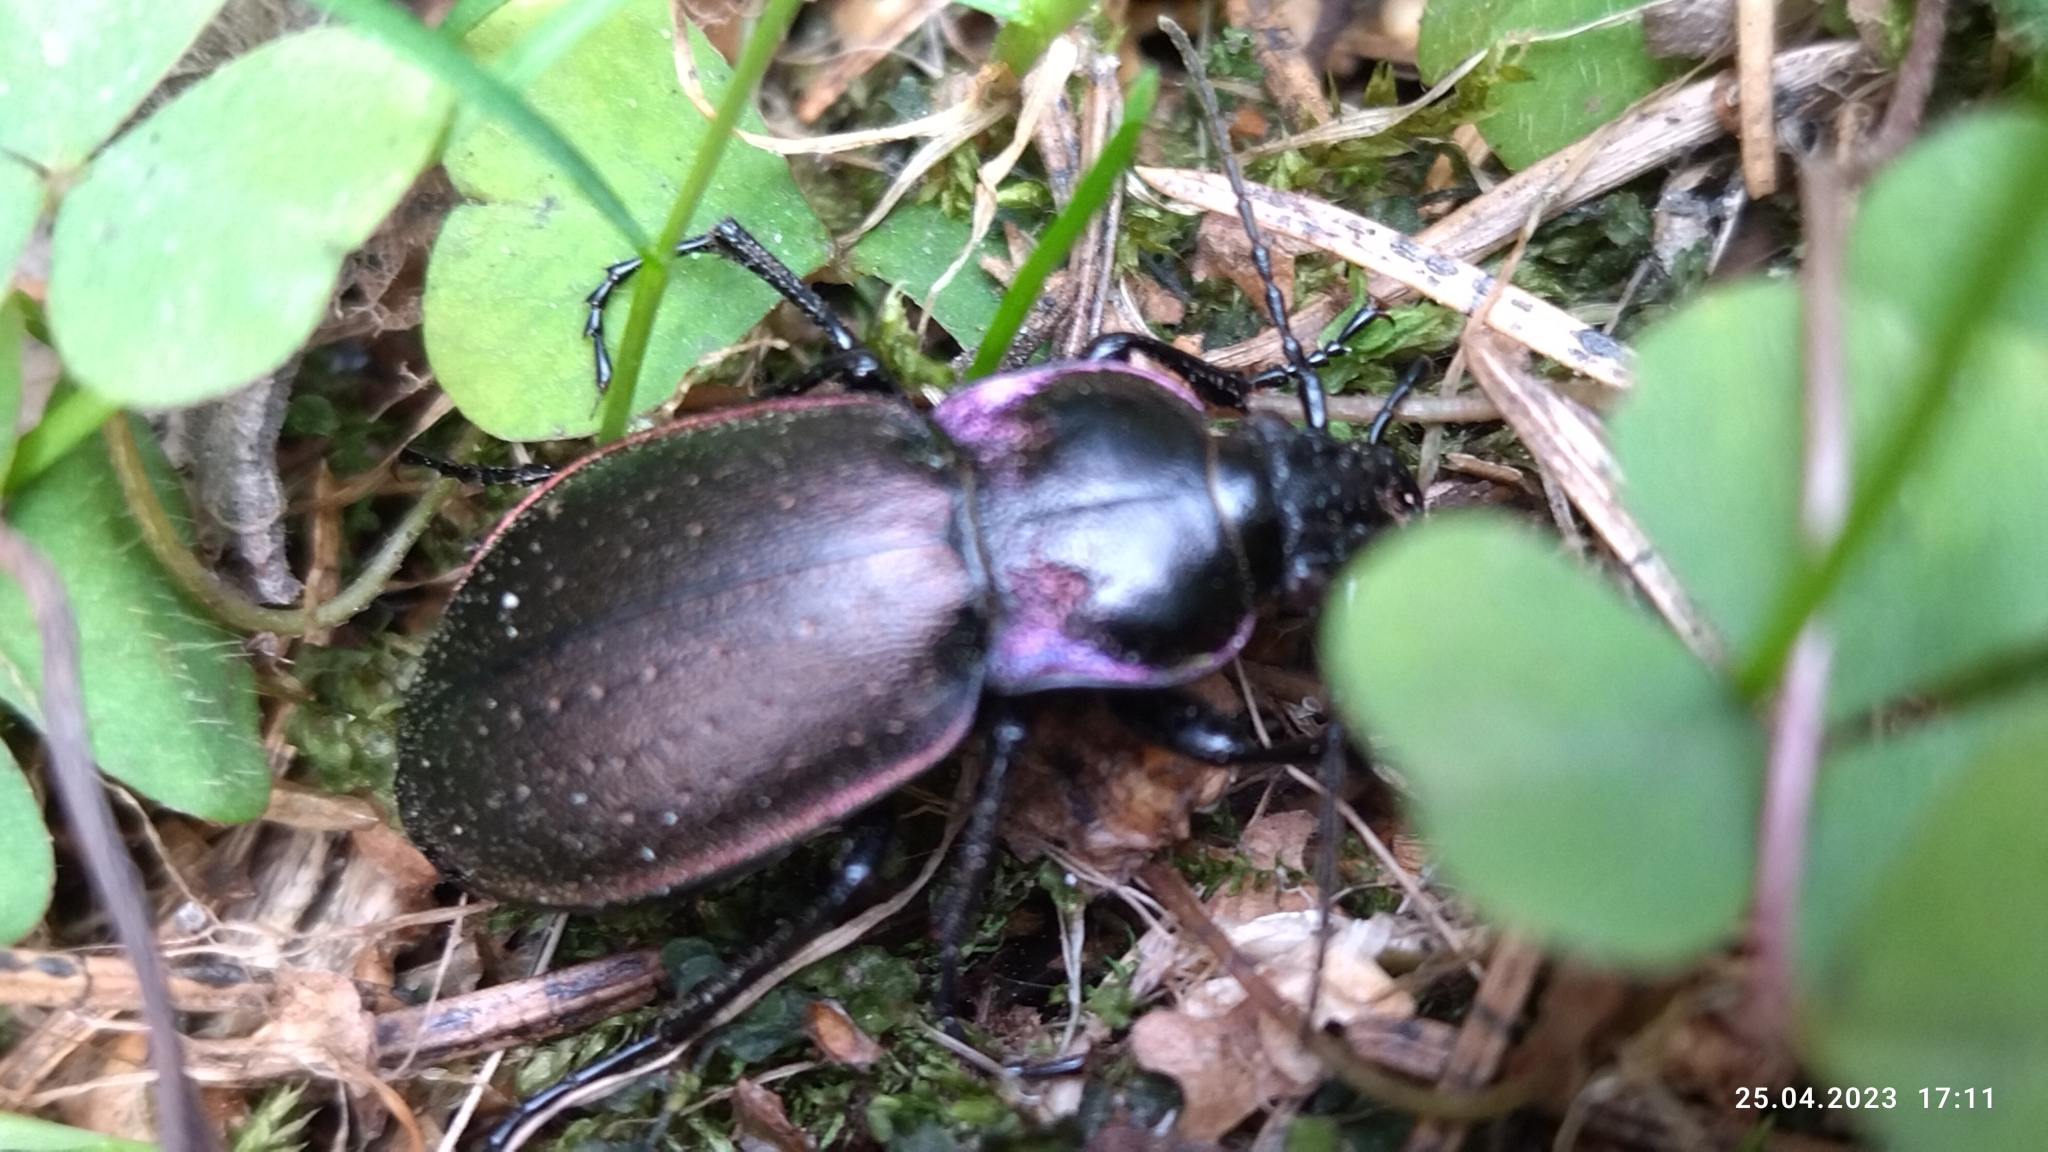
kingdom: Animalia
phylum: Arthropoda
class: Insecta
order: Coleoptera
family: Carabidae
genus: Carabus
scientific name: Carabus nemoralis
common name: European ground beetle
